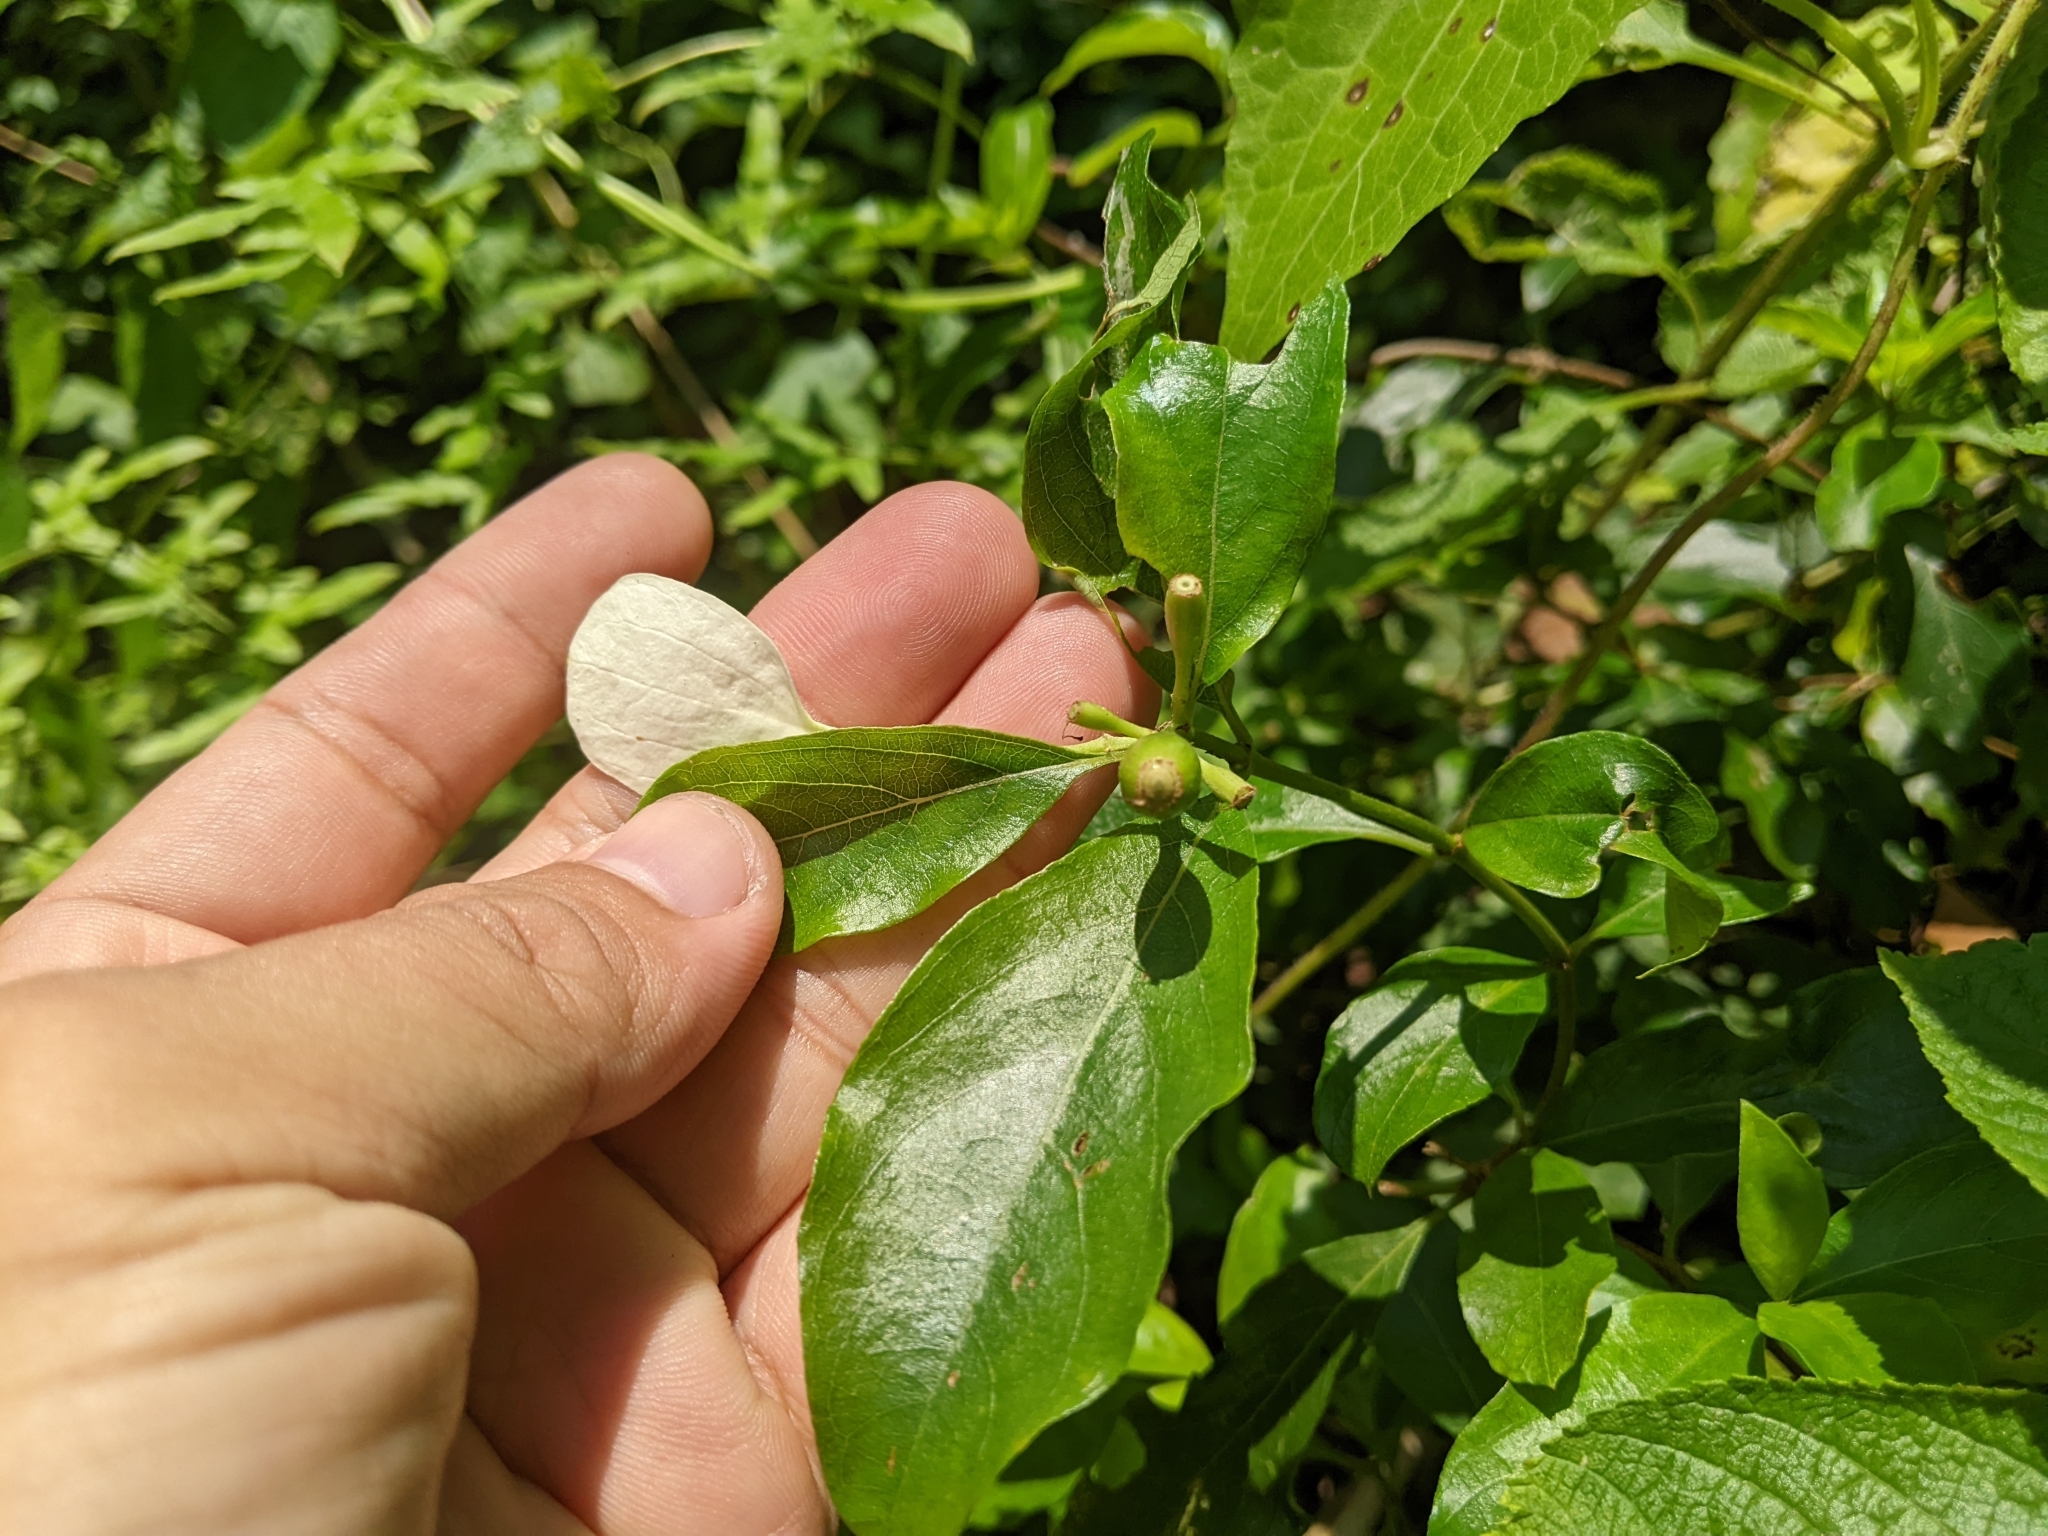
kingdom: Plantae
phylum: Tracheophyta
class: Magnoliopsida
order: Gentianales
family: Rubiaceae
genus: Mussaenda
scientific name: Mussaenda formosana
